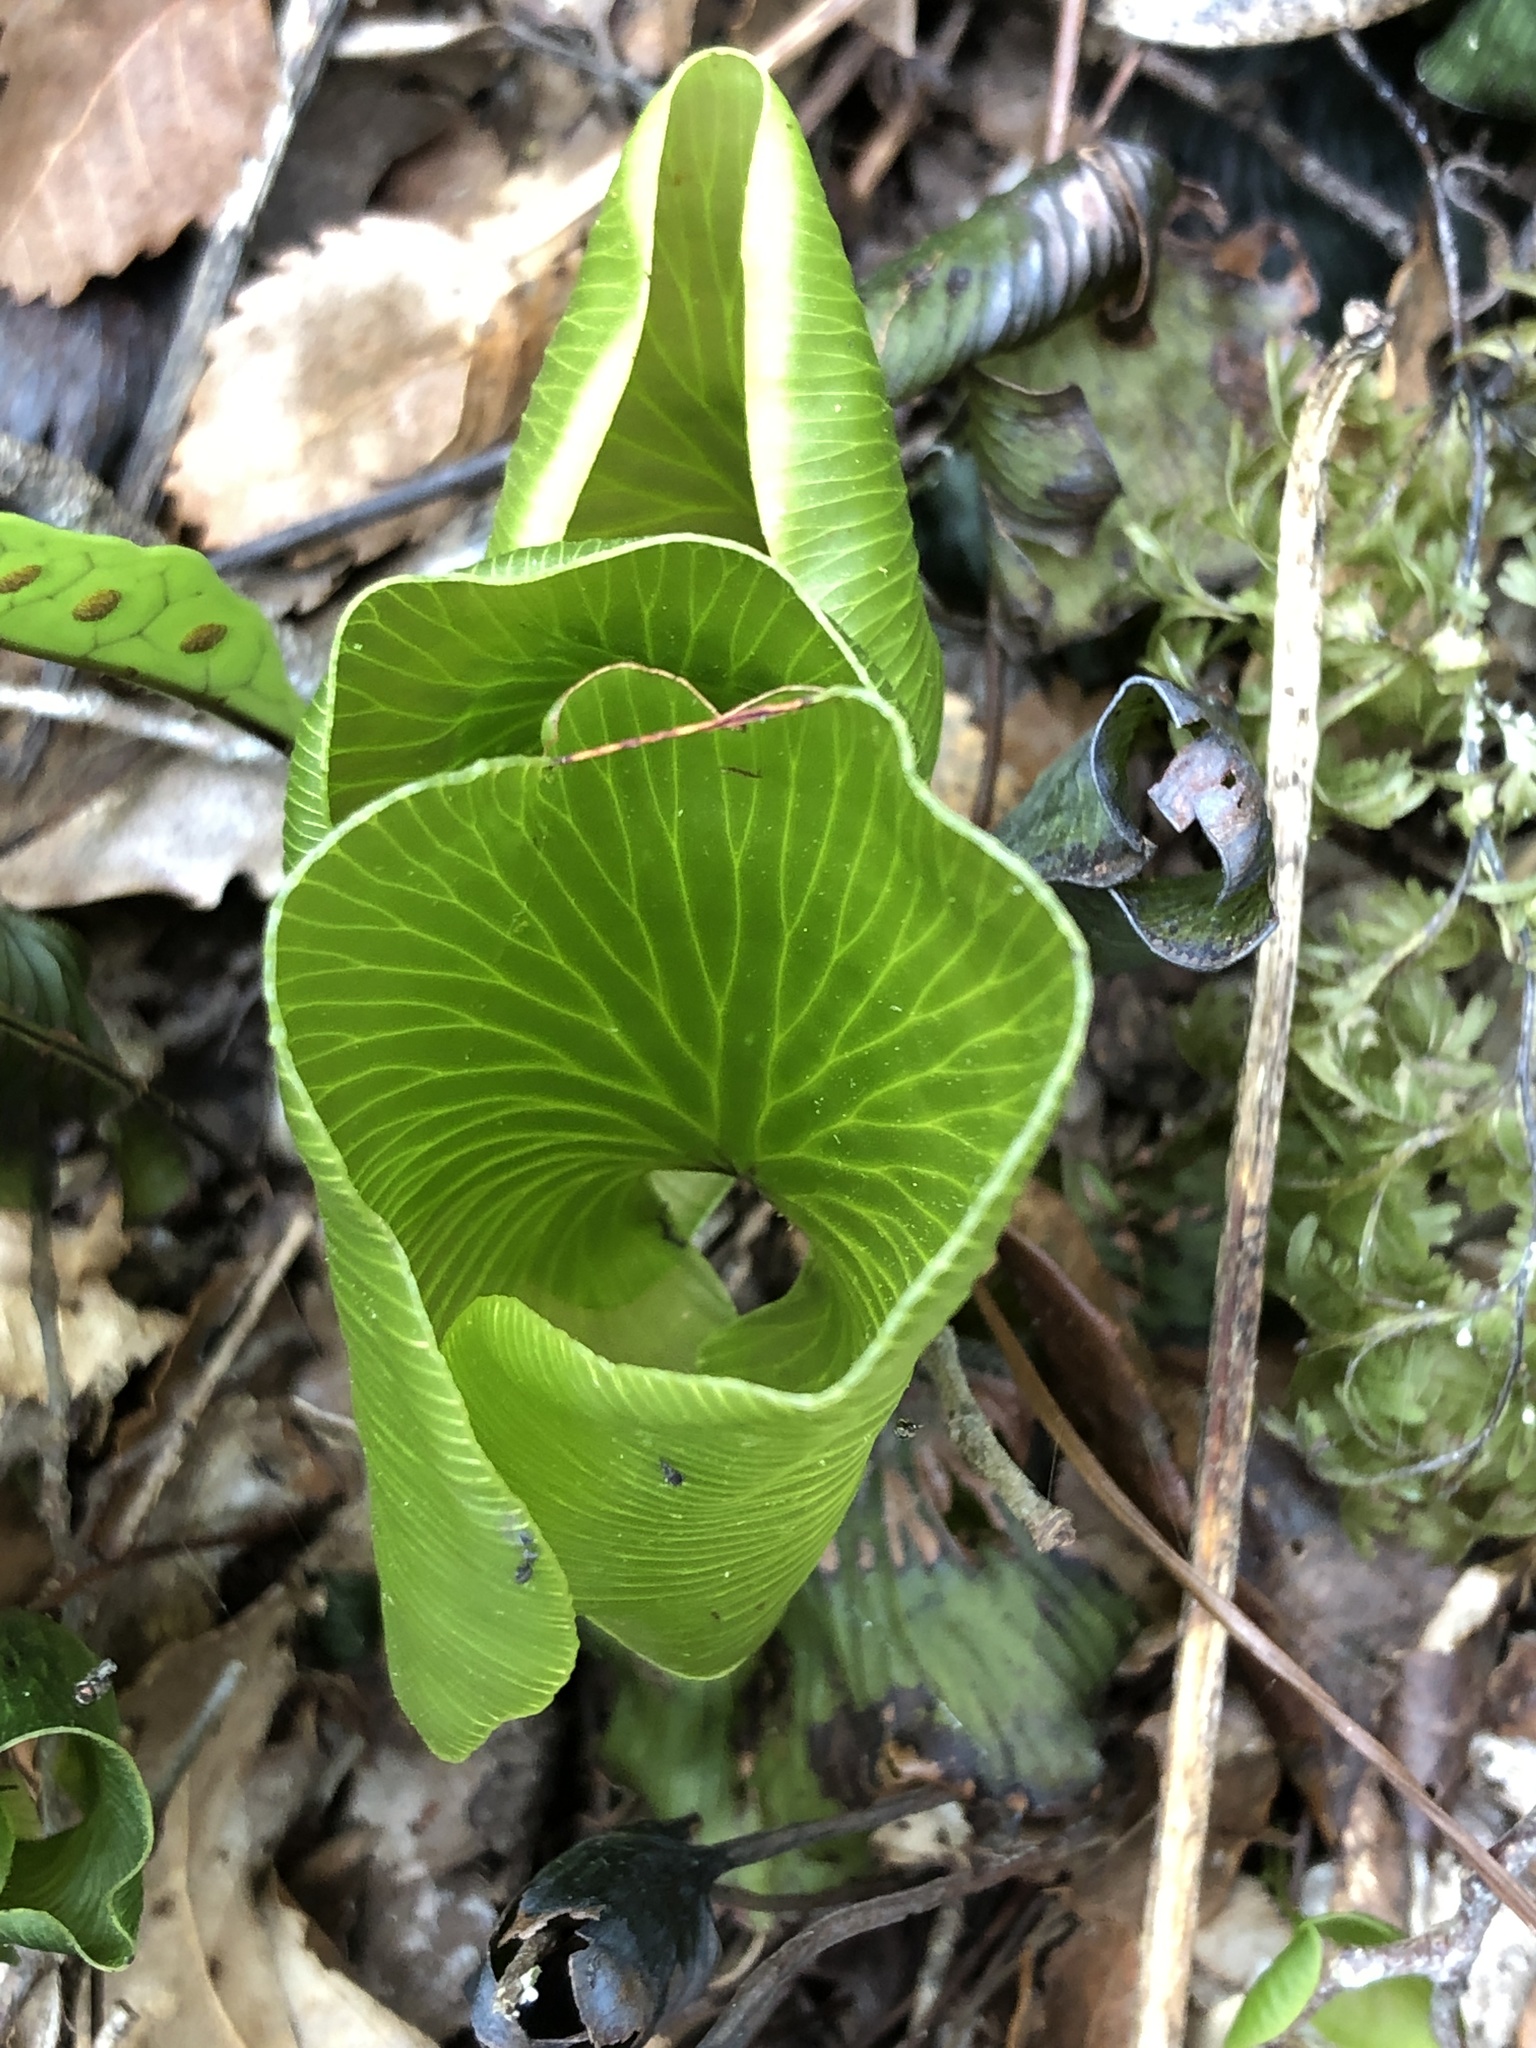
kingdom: Plantae
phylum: Tracheophyta
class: Polypodiopsida
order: Hymenophyllales
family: Hymenophyllaceae
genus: Hymenophyllum
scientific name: Hymenophyllum nephrophyllum
